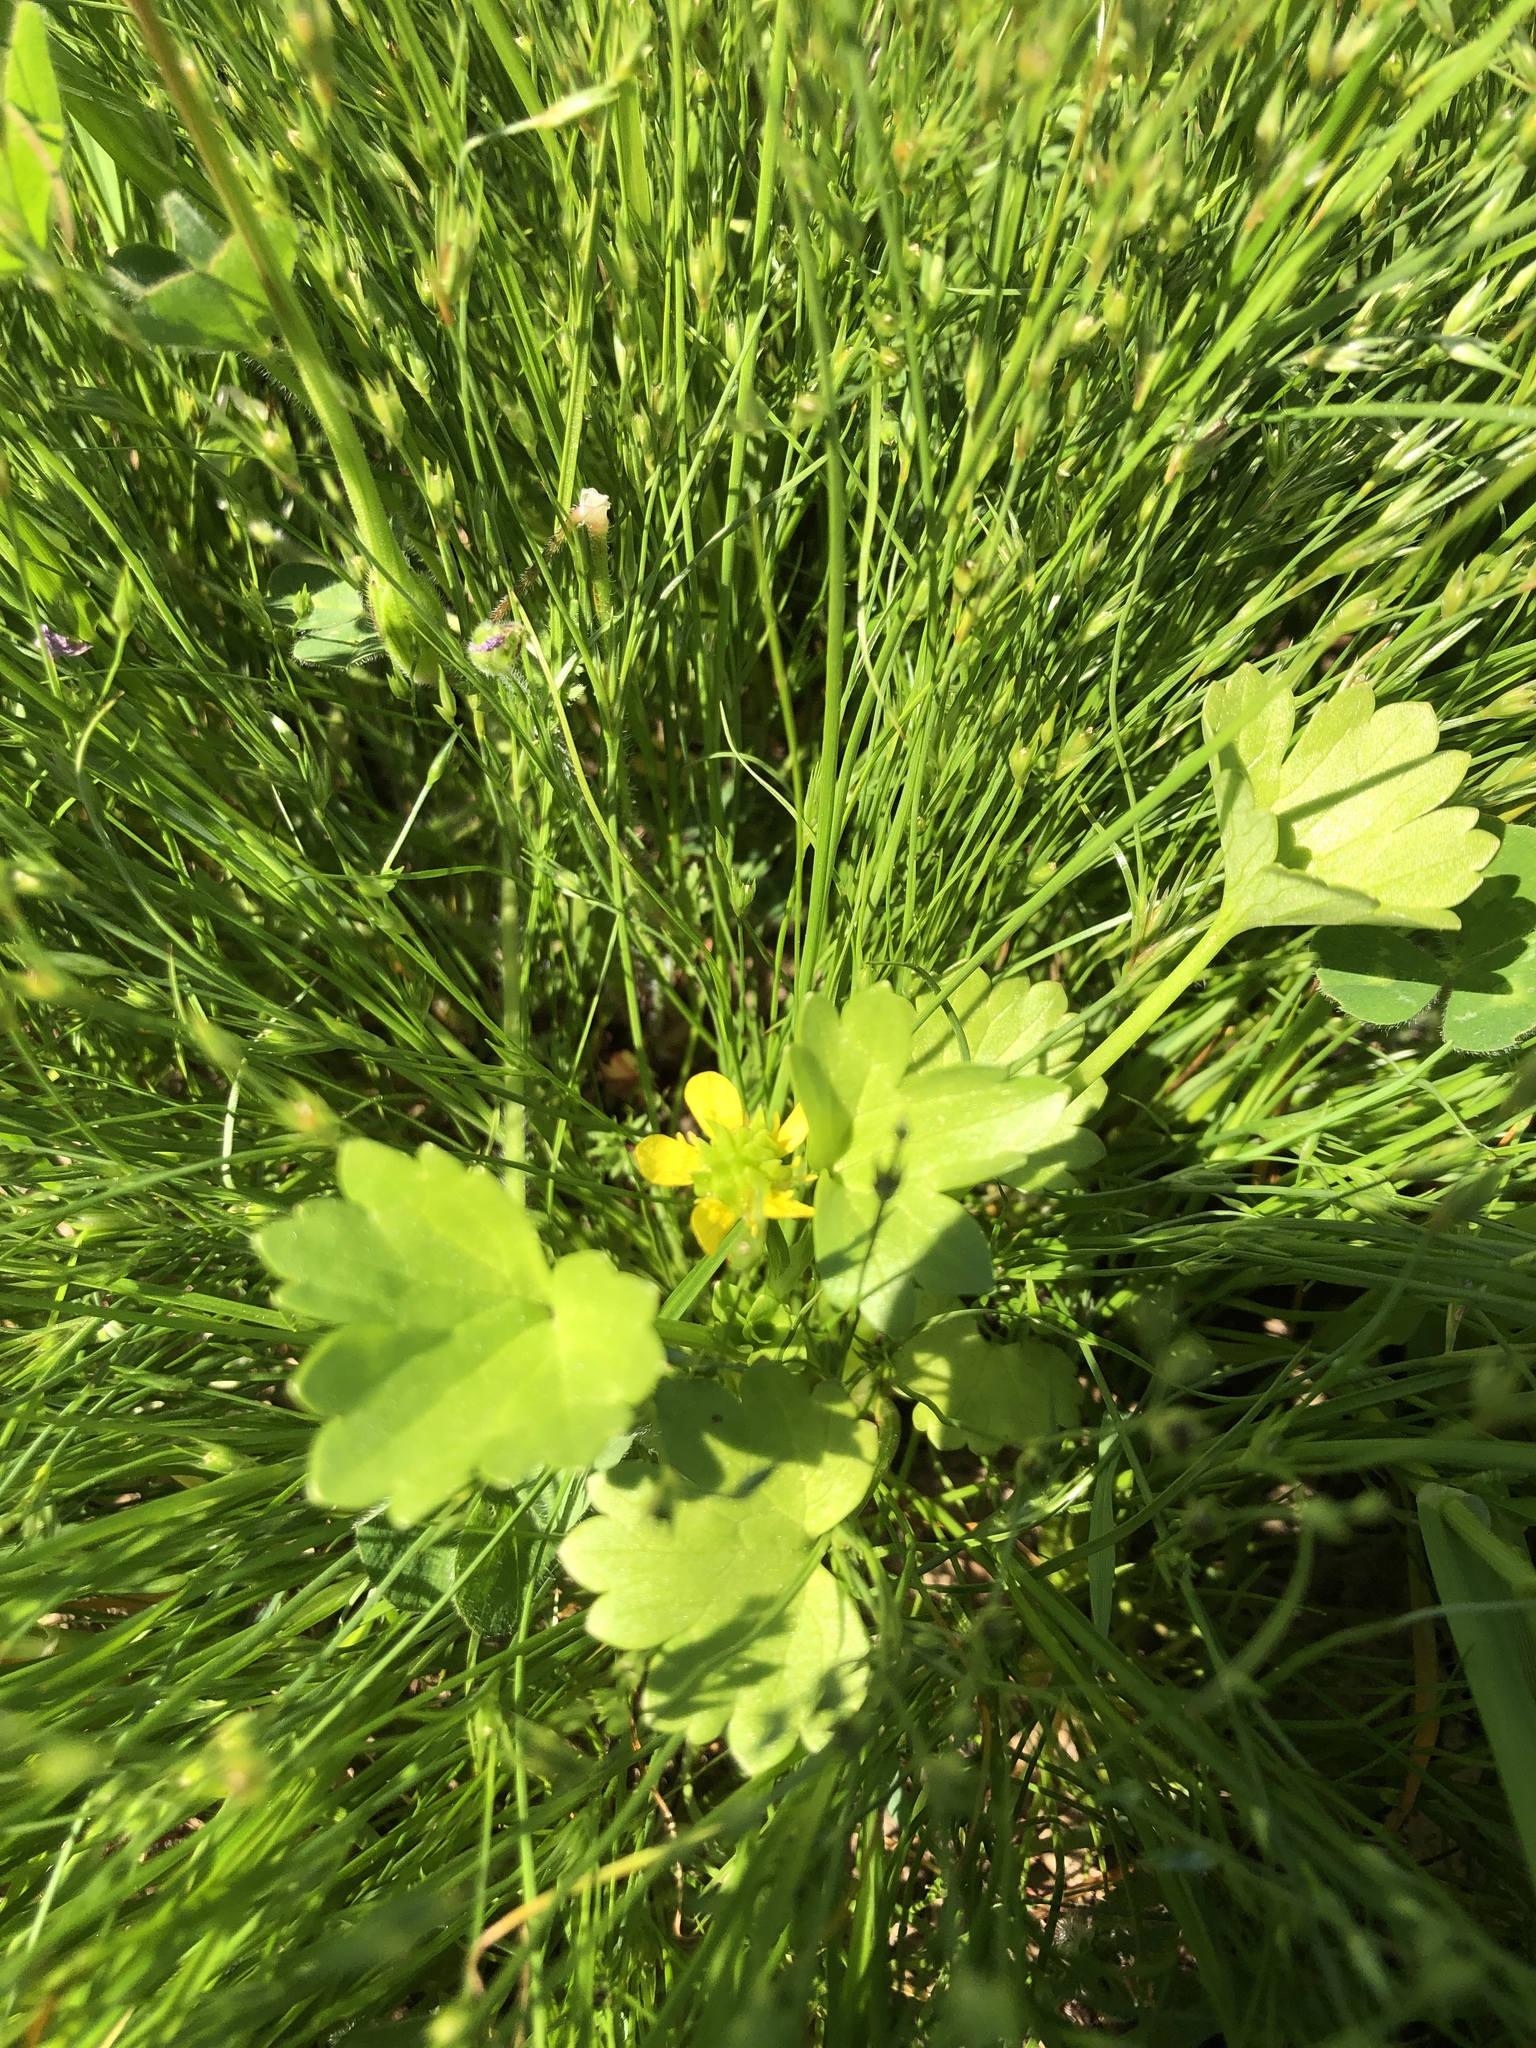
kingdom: Plantae
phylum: Tracheophyta
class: Magnoliopsida
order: Ranunculales
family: Ranunculaceae
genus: Ranunculus
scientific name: Ranunculus muricatus
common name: Rough-fruited buttercup
